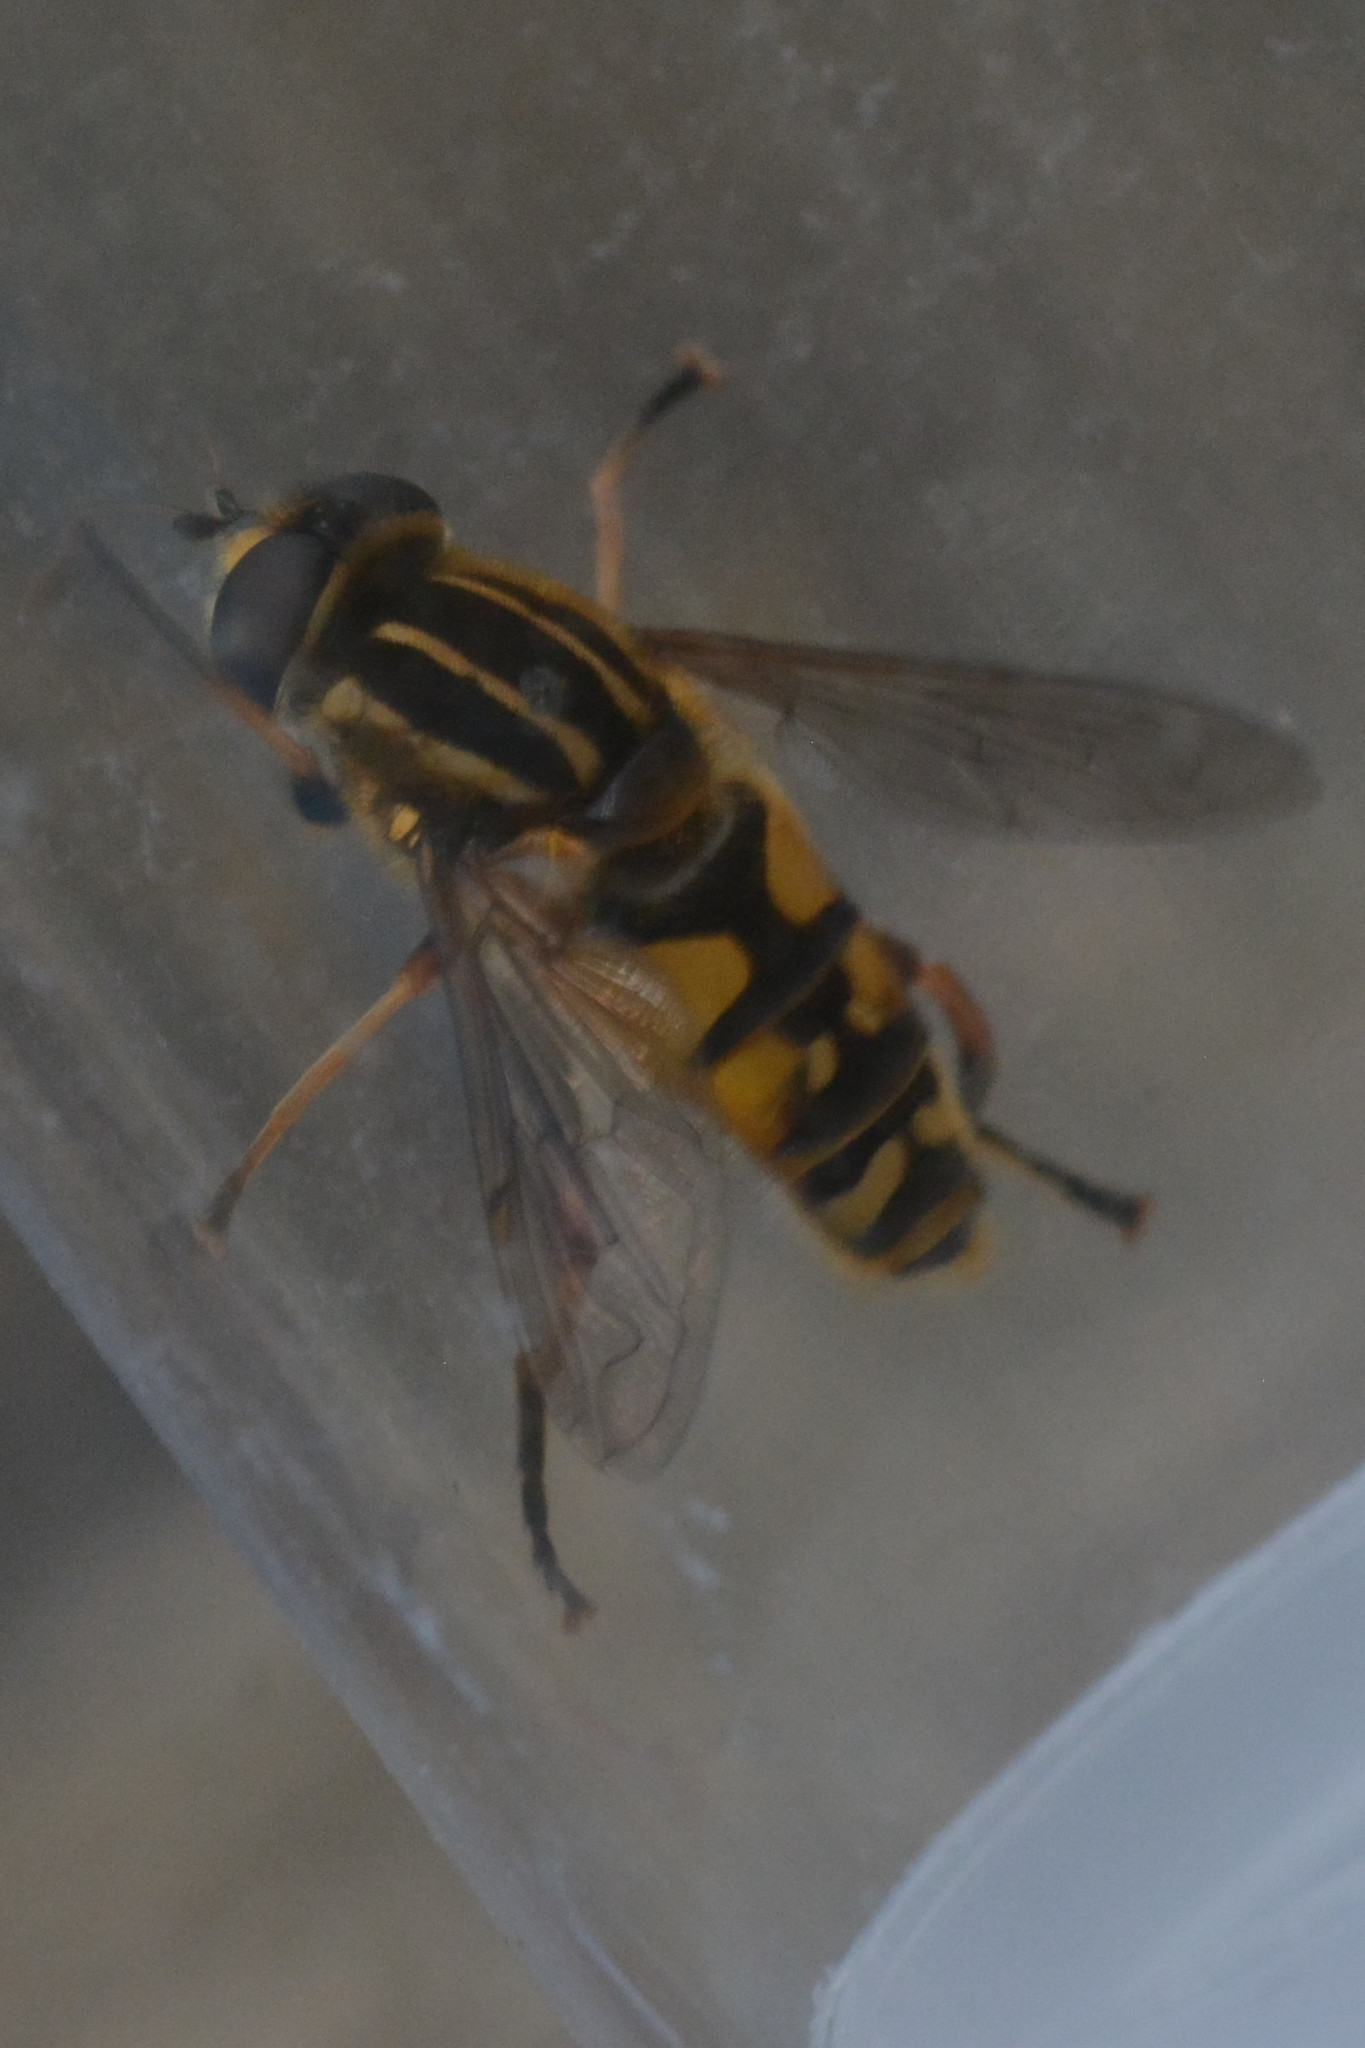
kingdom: Animalia
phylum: Arthropoda
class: Insecta
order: Diptera
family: Syrphidae
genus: Helophilus
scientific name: Helophilus pendulus
